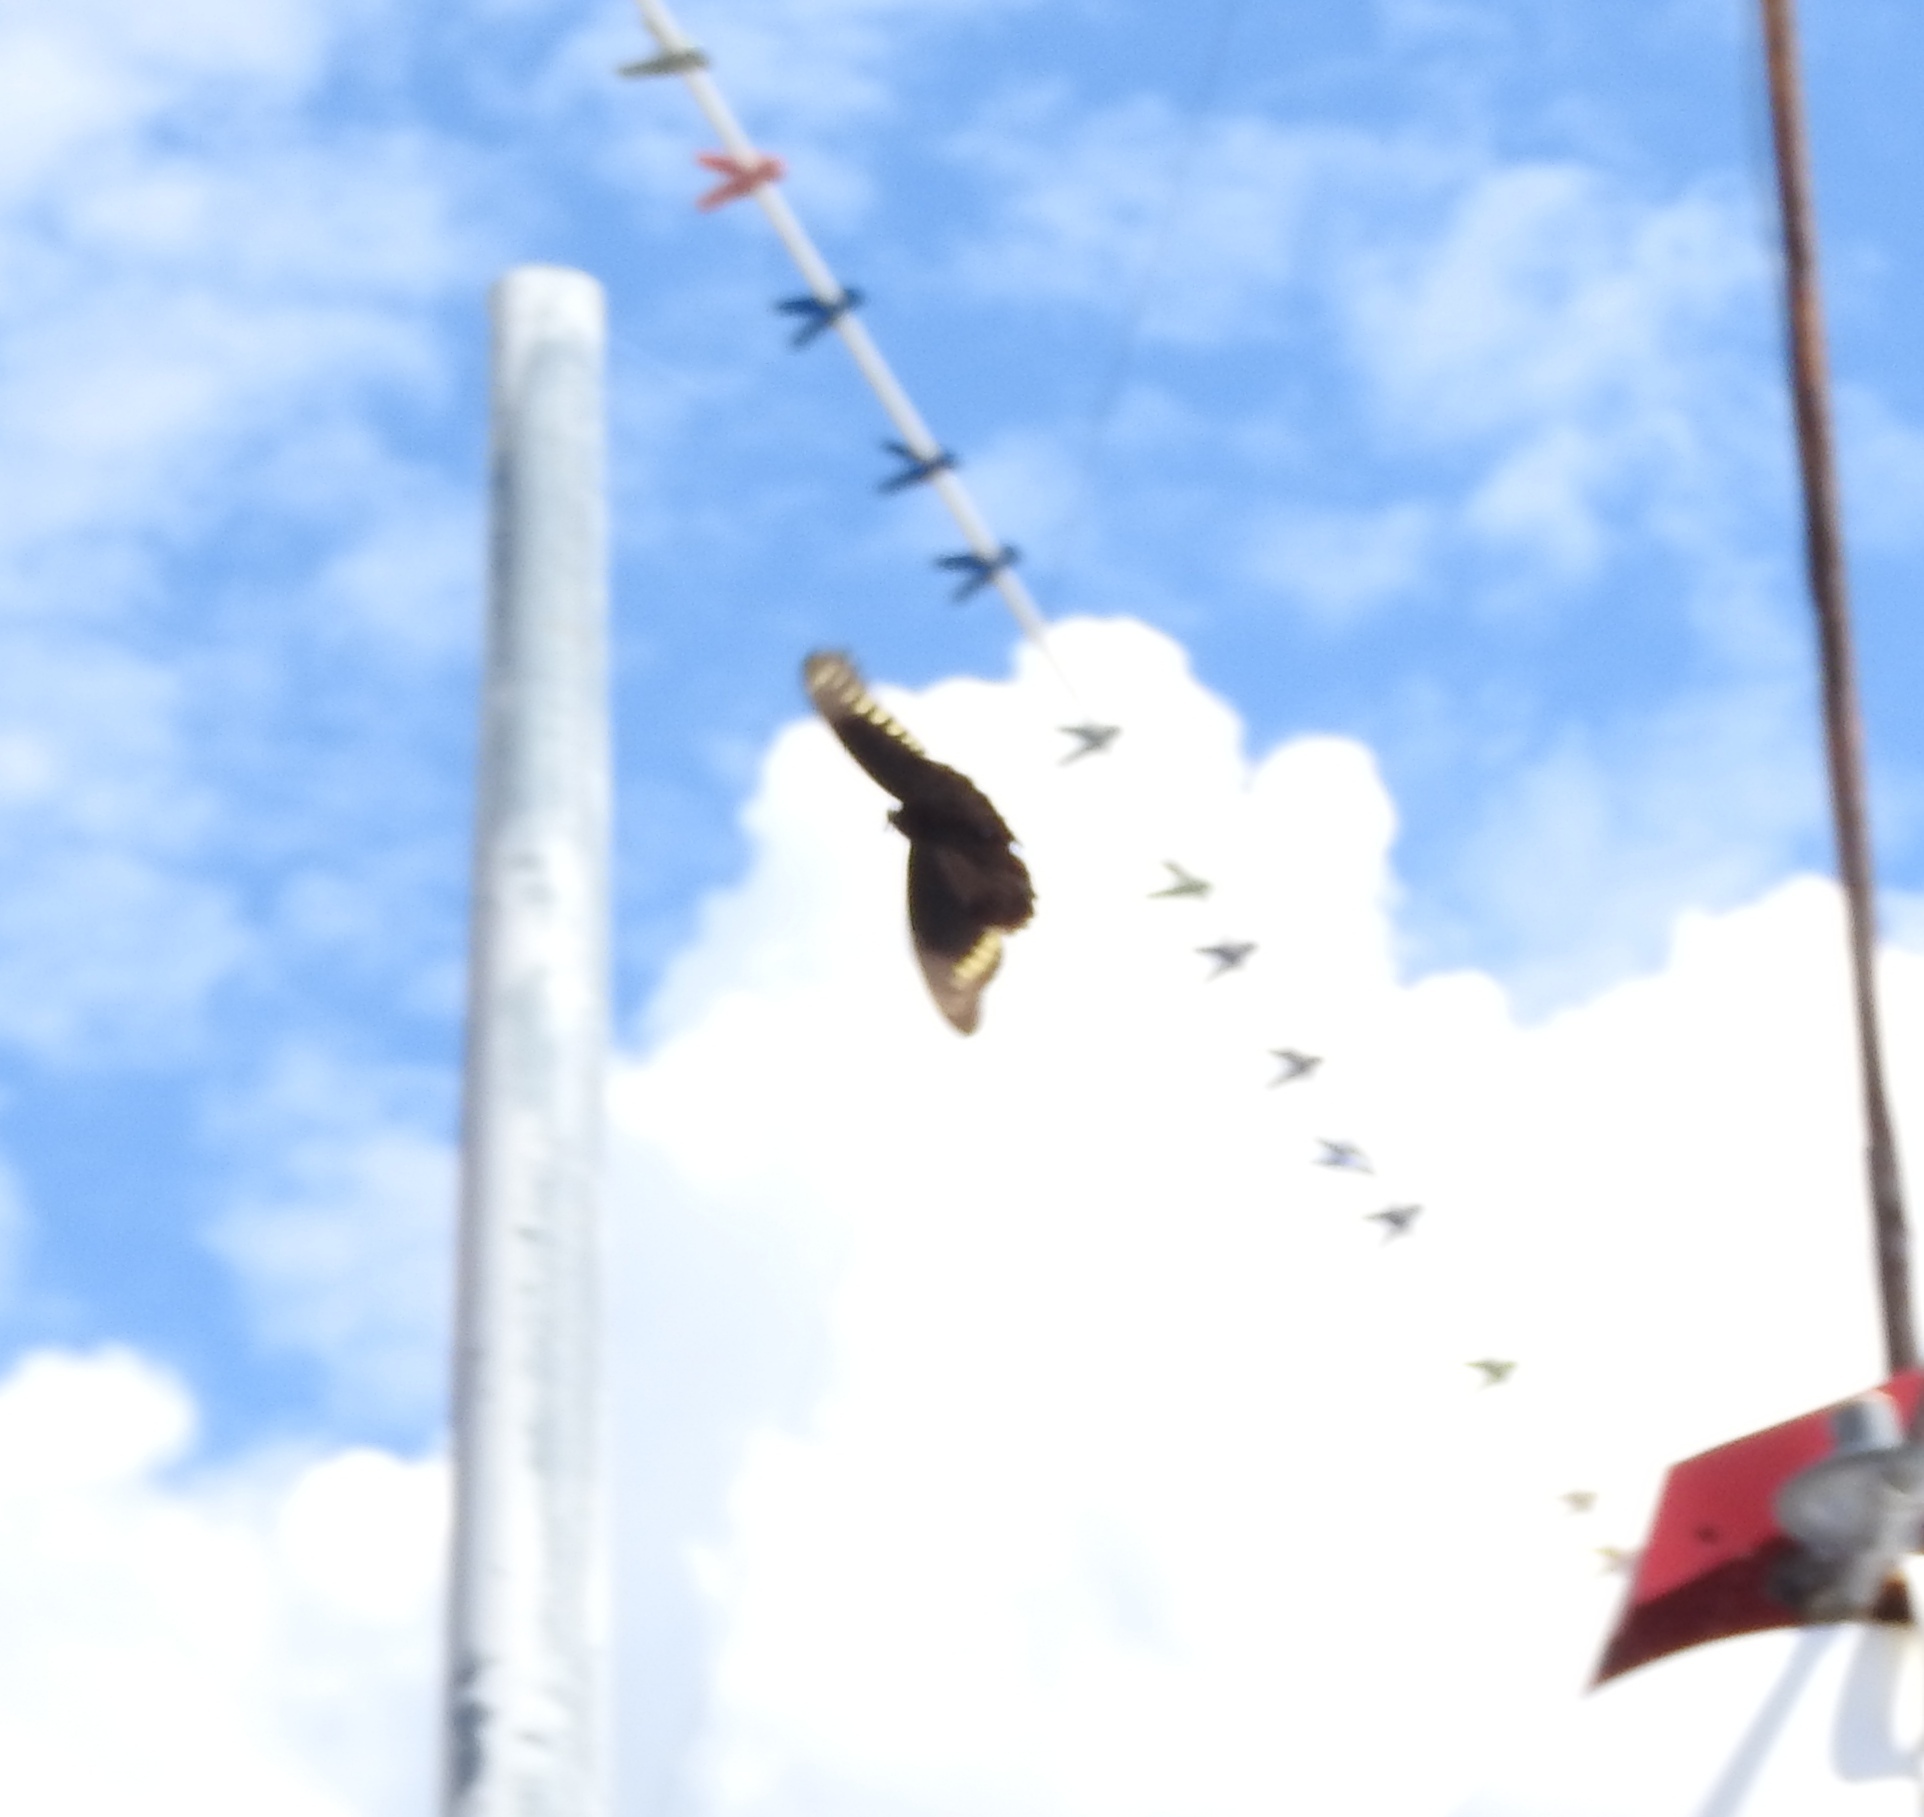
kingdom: Animalia
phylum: Arthropoda
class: Insecta
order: Lepidoptera
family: Papilionidae
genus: Battus
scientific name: Battus polydamas
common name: Polydamas swallowtail
